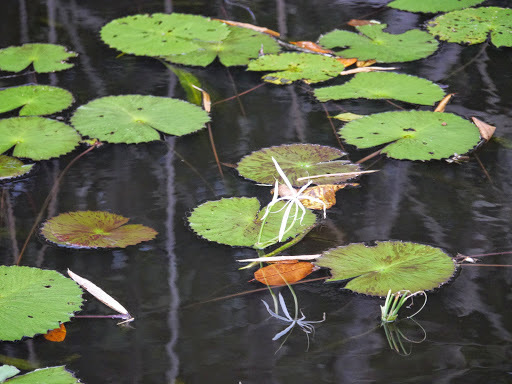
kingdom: Plantae
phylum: Tracheophyta
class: Liliopsida
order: Asparagales
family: Amaryllidaceae
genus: Crinum
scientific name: Crinum natans
